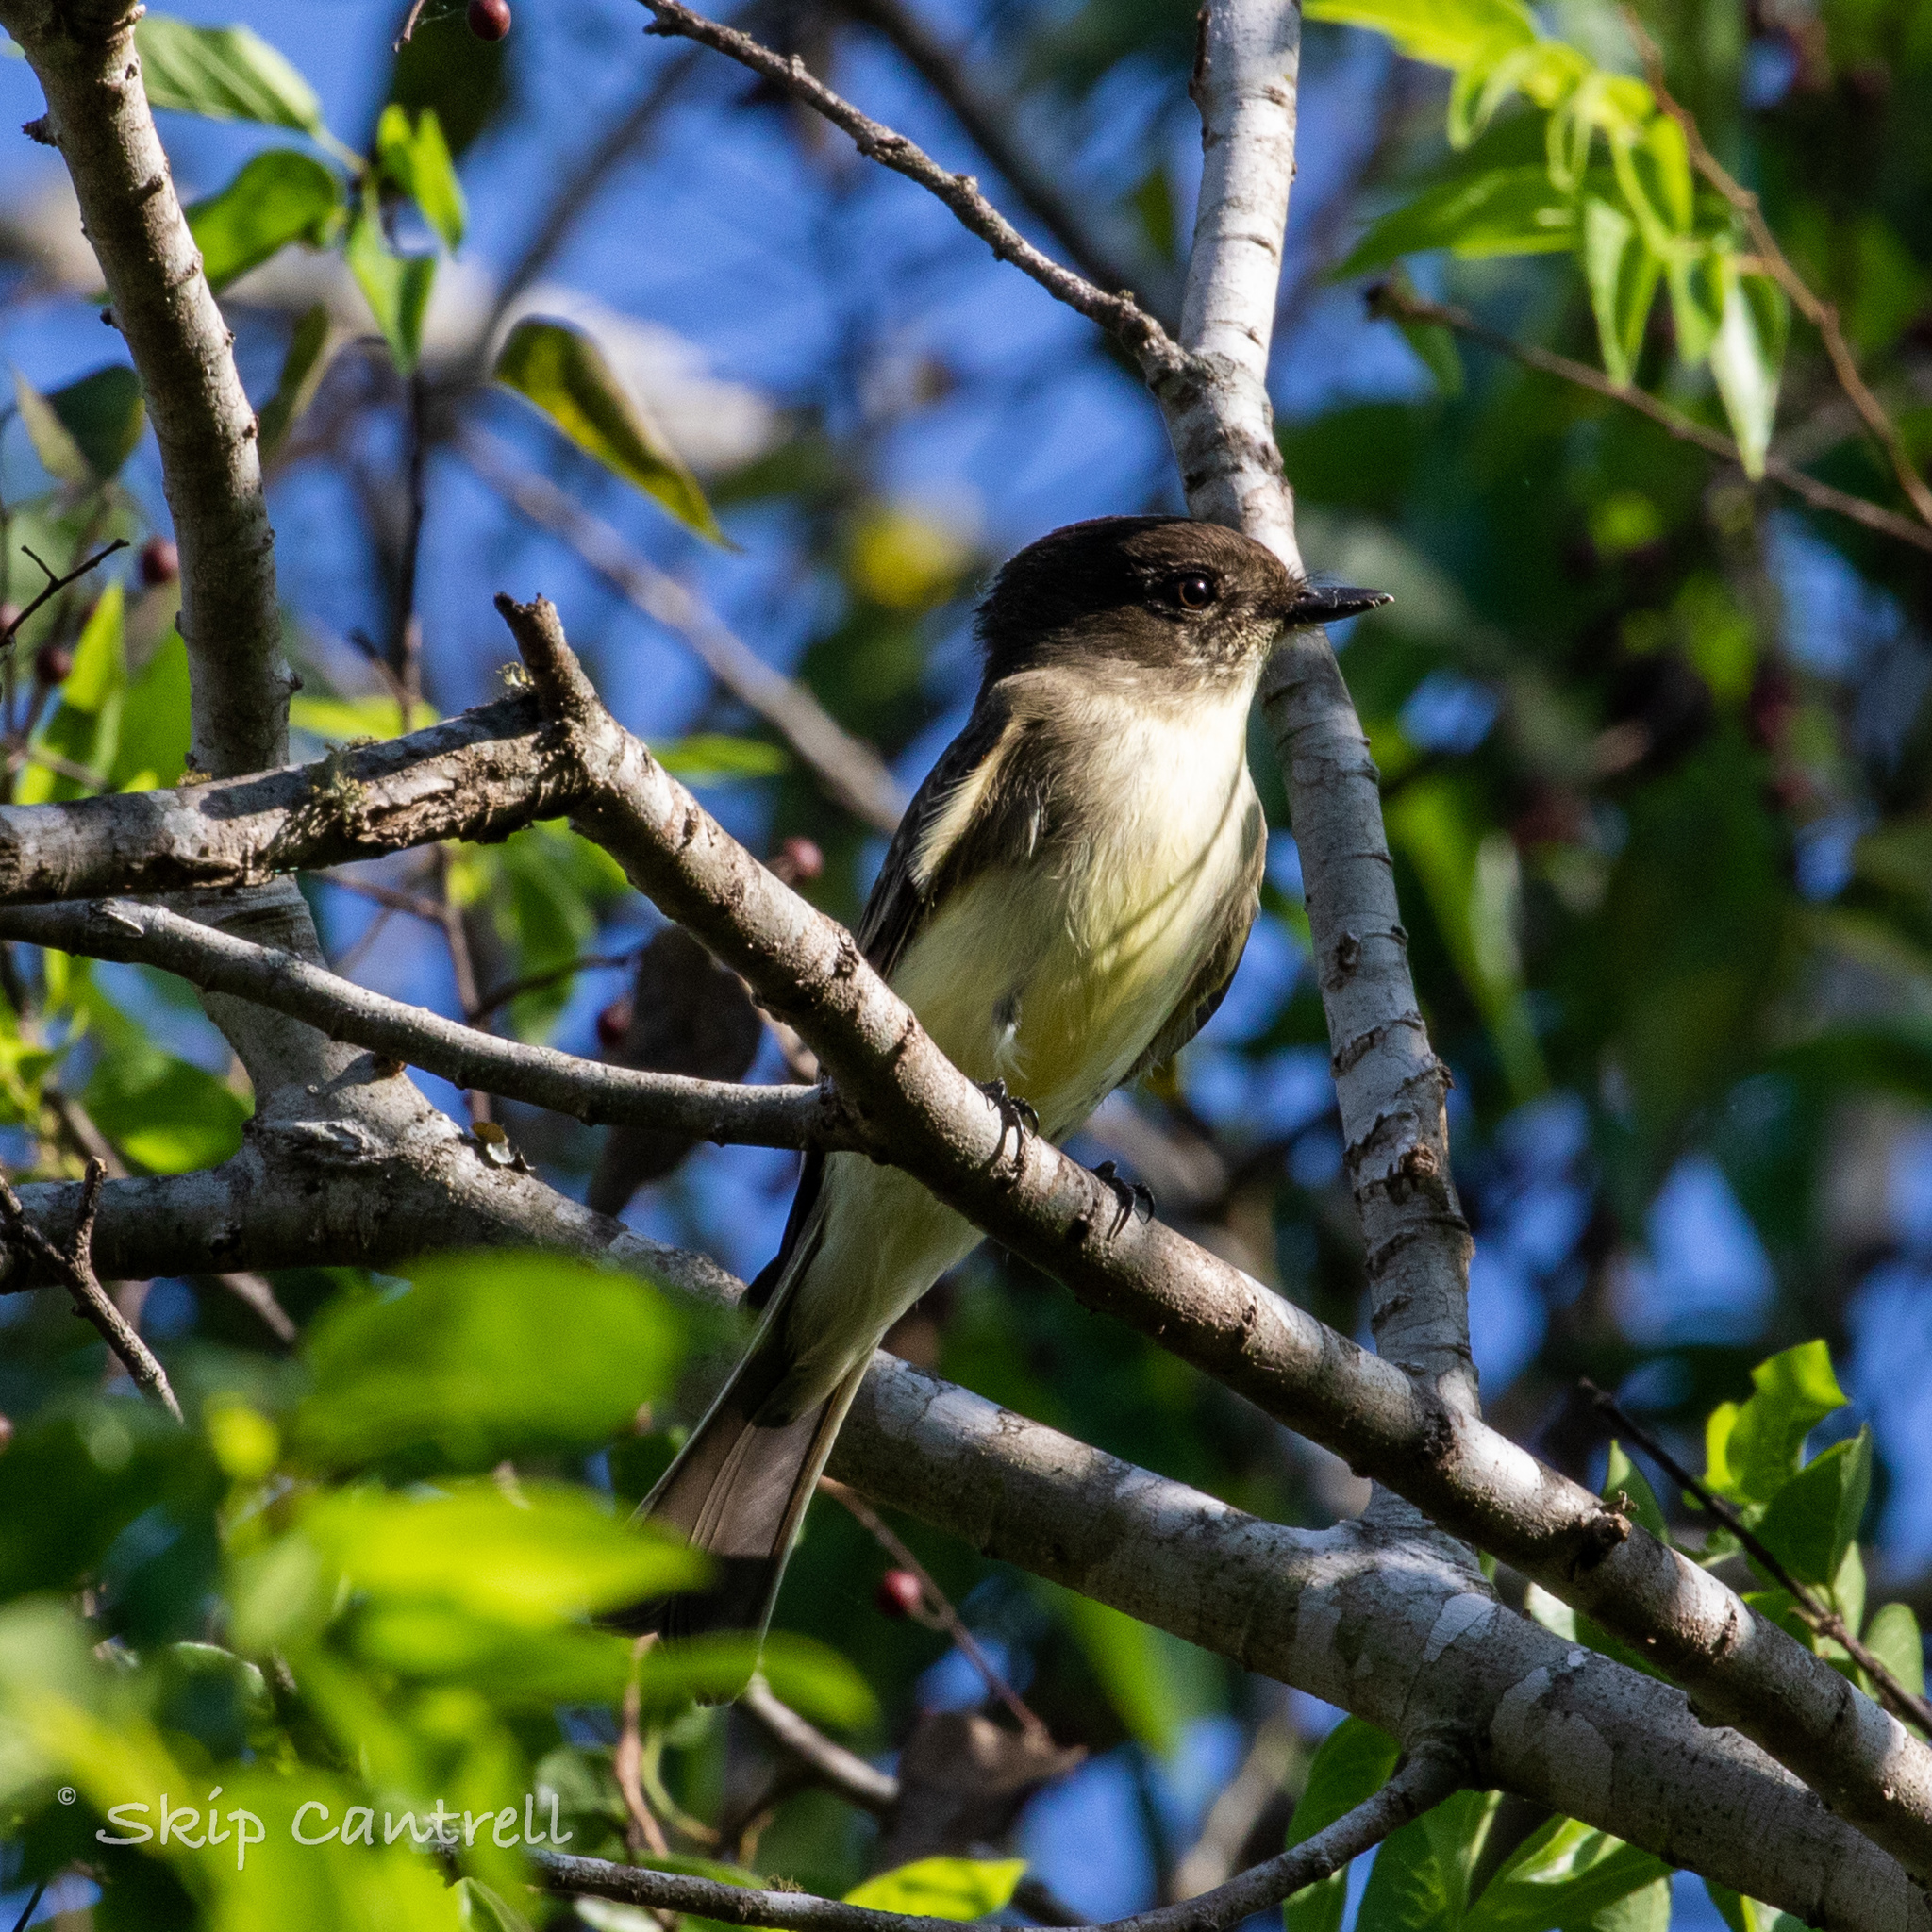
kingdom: Animalia
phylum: Chordata
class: Aves
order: Passeriformes
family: Tyrannidae
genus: Sayornis
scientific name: Sayornis phoebe
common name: Eastern phoebe
